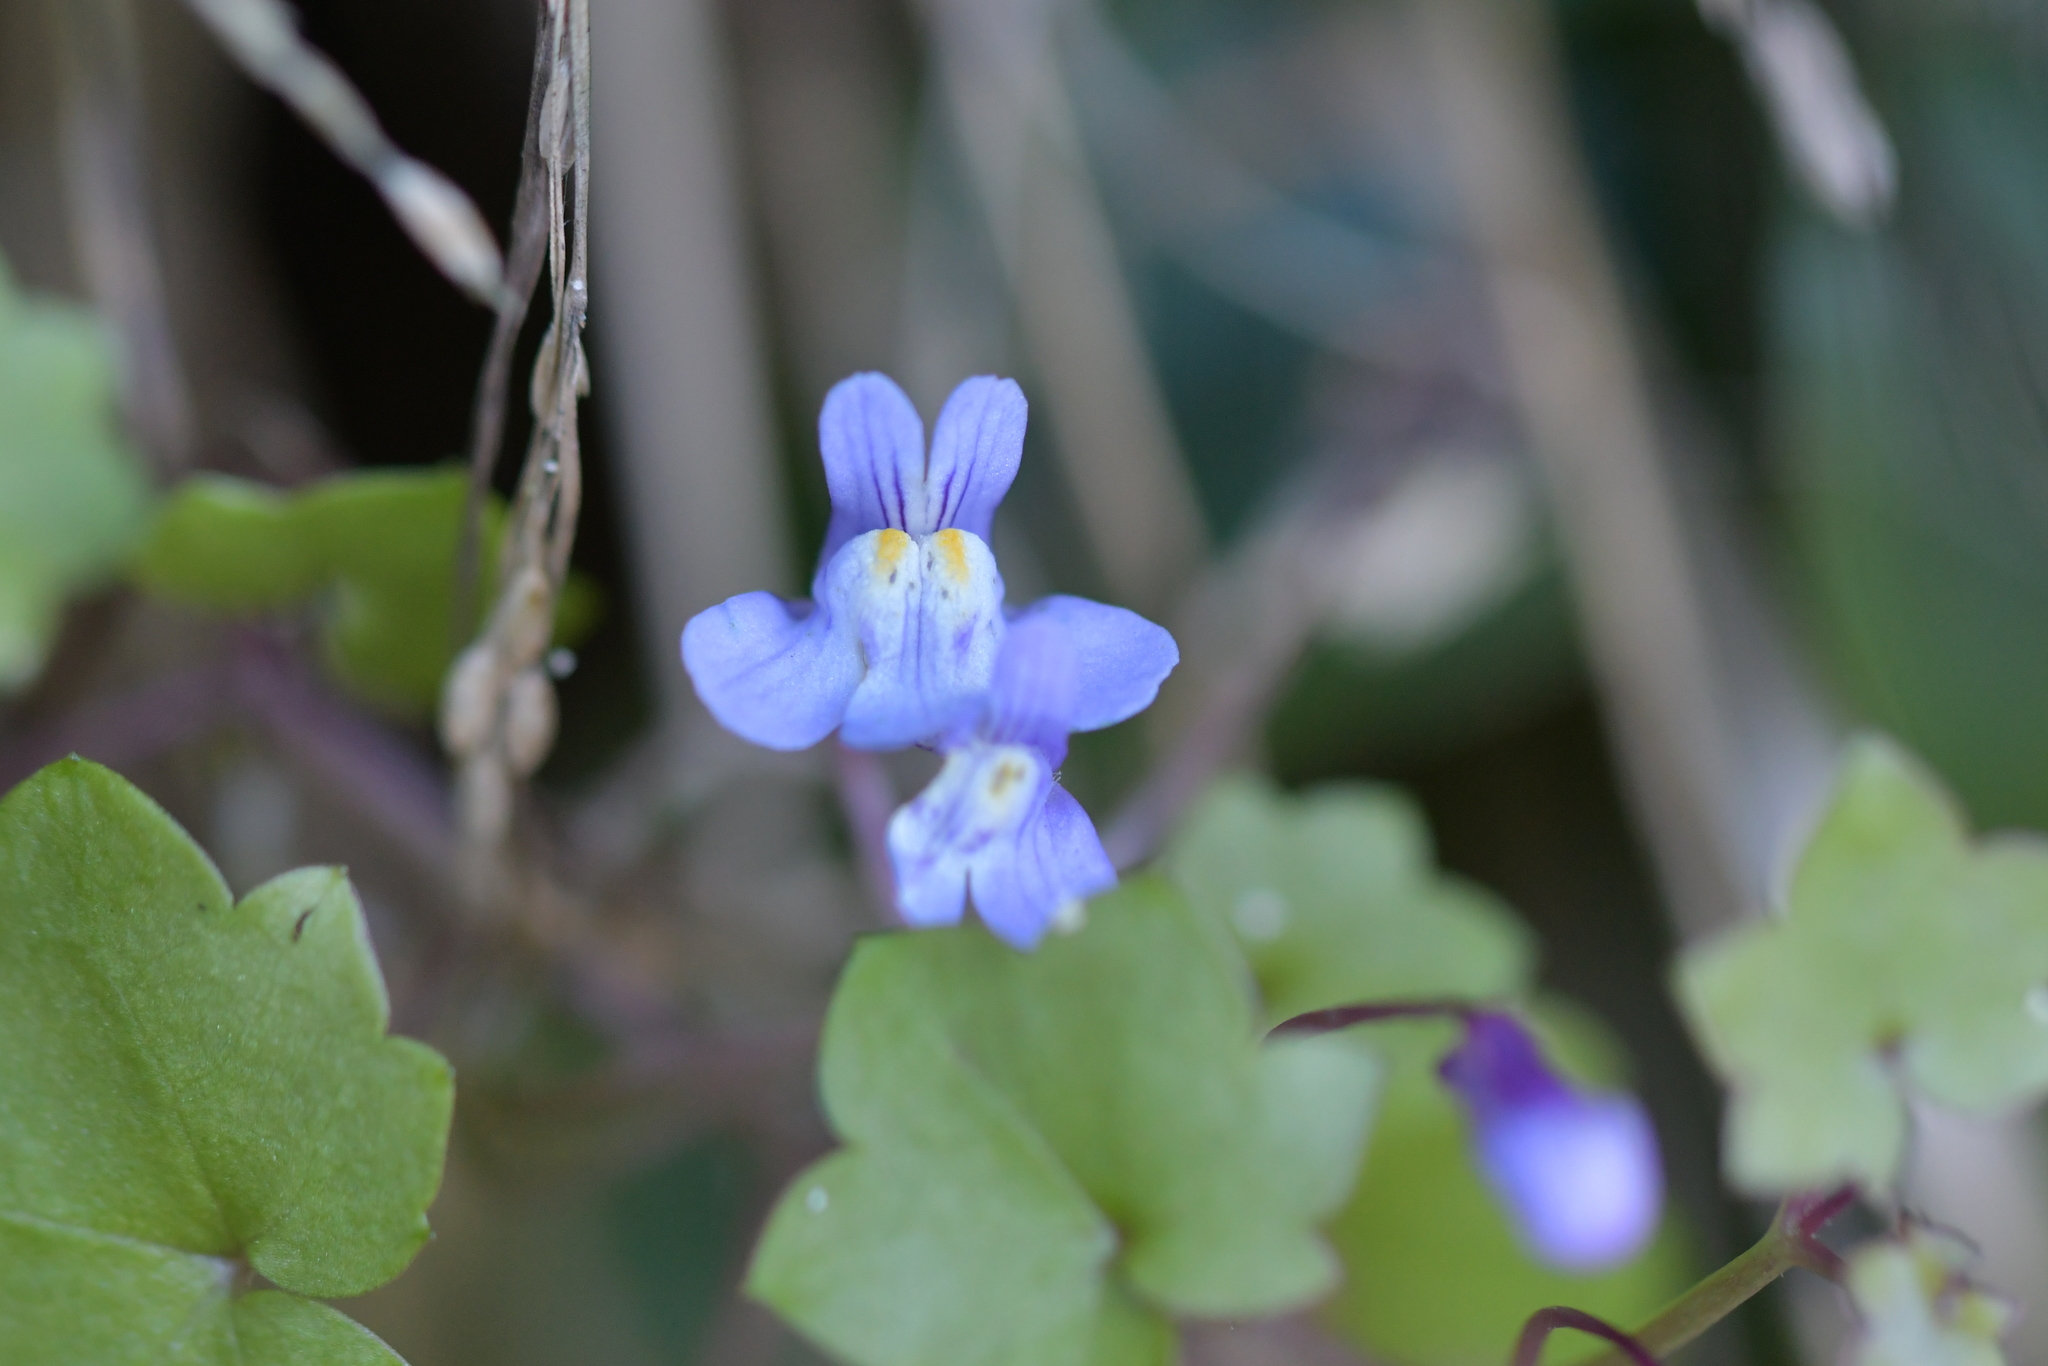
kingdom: Plantae
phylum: Tracheophyta
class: Magnoliopsida
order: Lamiales
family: Plantaginaceae
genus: Cymbalaria
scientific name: Cymbalaria muralis
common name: Ivy-leaved toadflax
